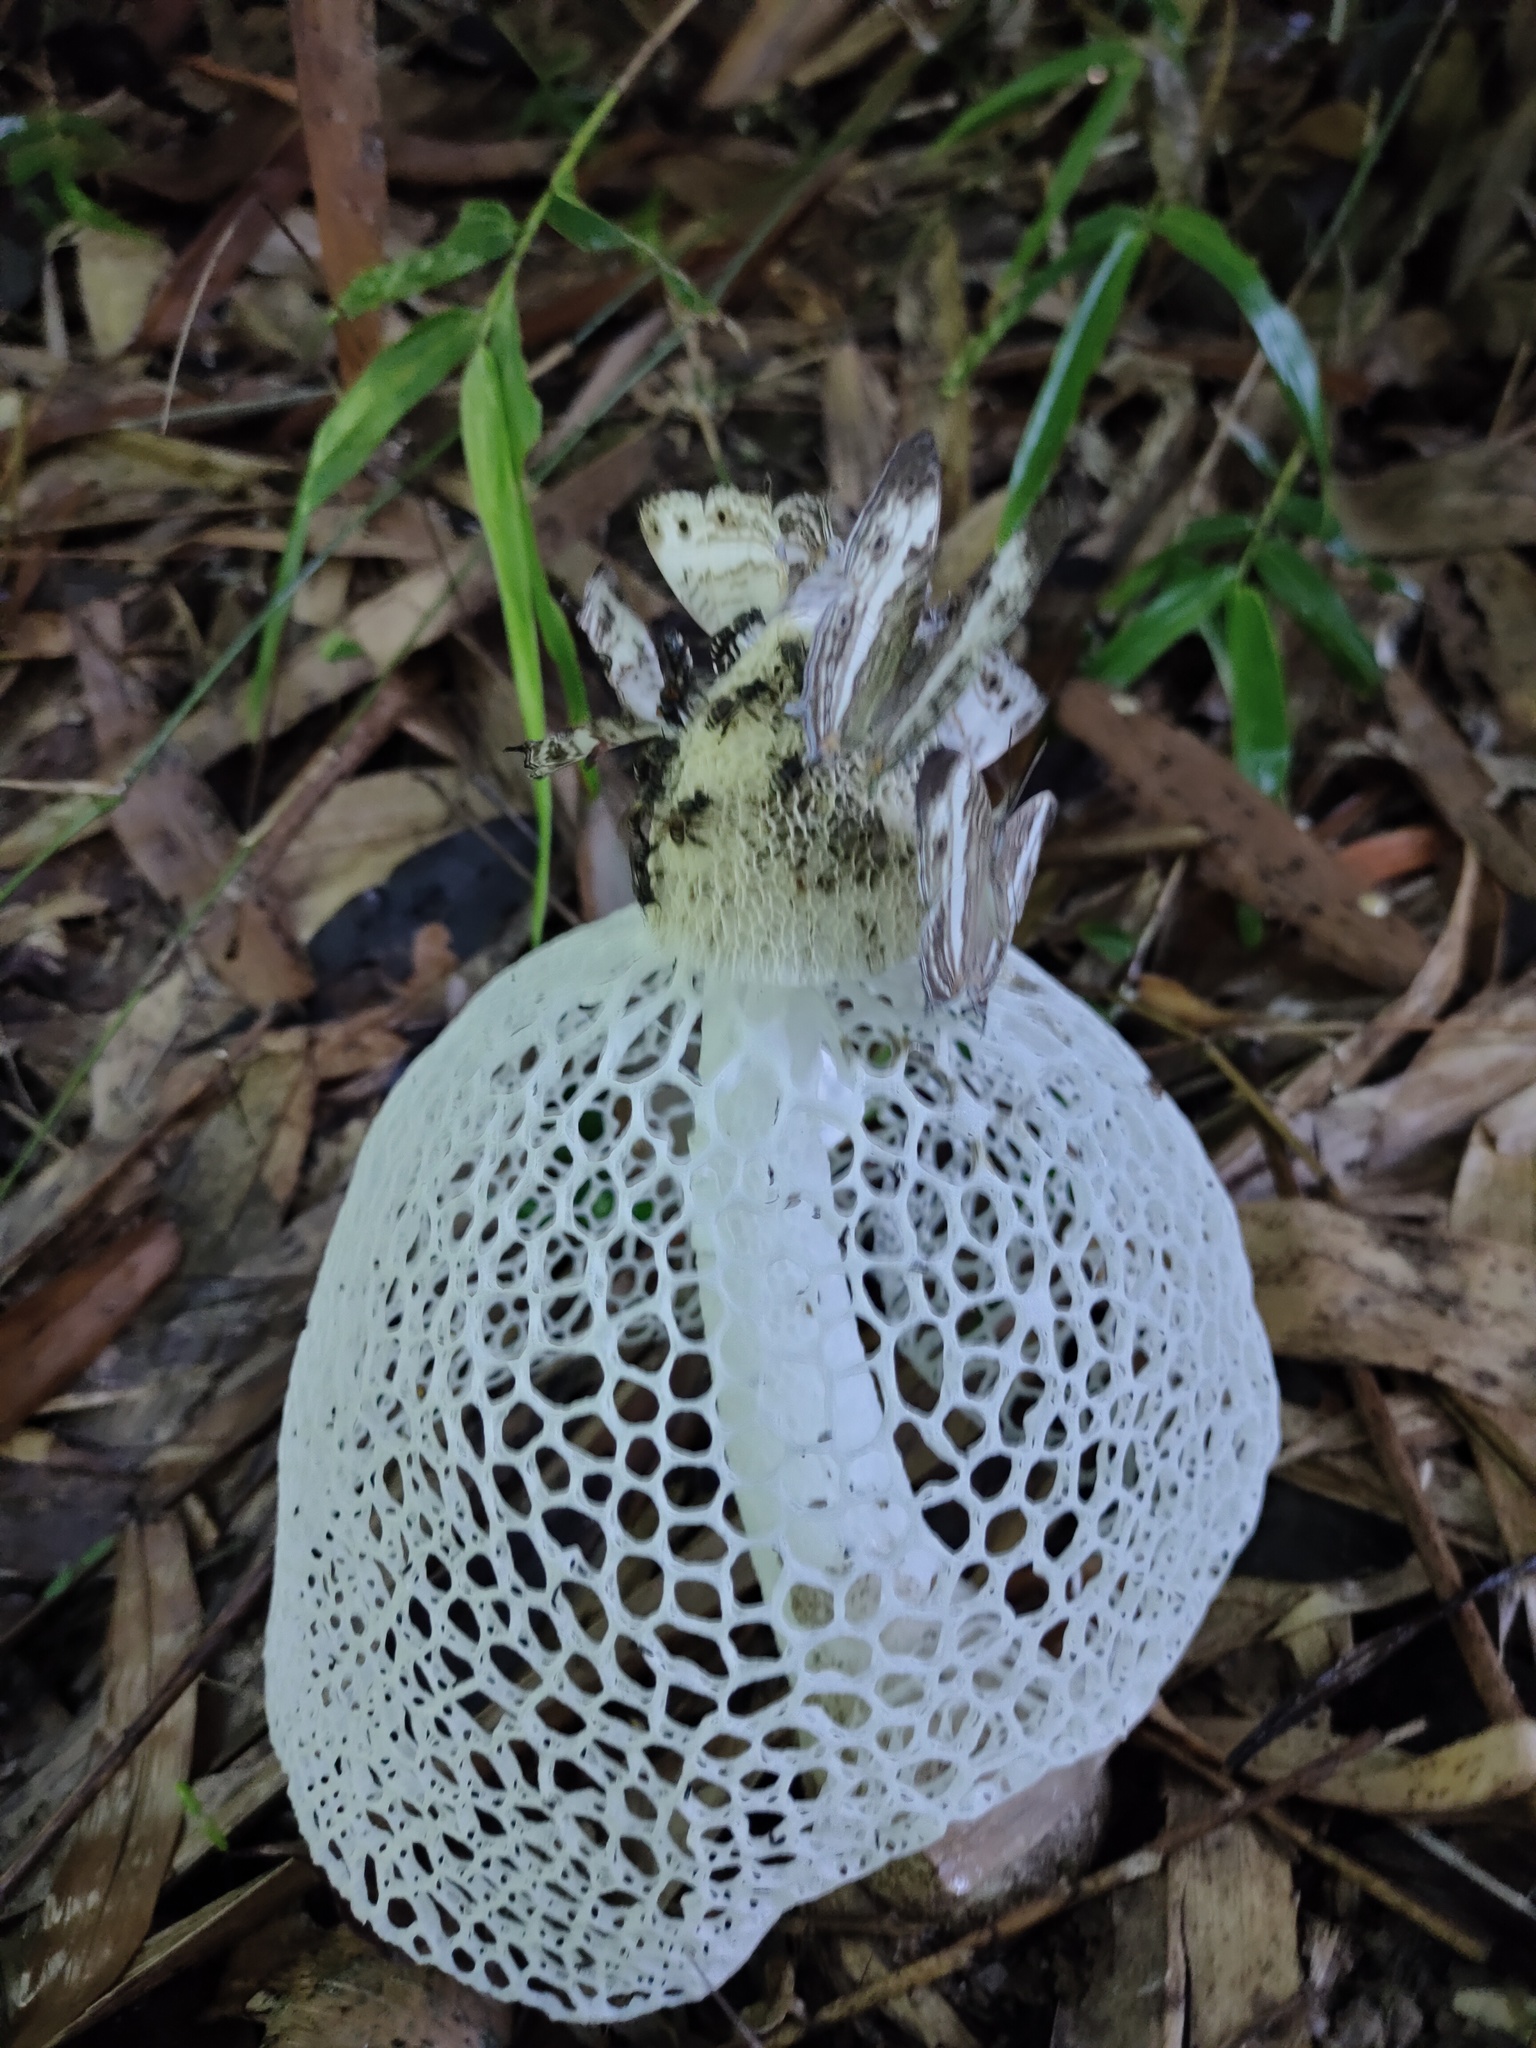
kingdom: Fungi
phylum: Basidiomycota
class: Agaricomycetes
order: Phallales
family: Phallaceae
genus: Phallus
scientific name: Phallus indusiatus
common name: Bridal veil stinkhorn
